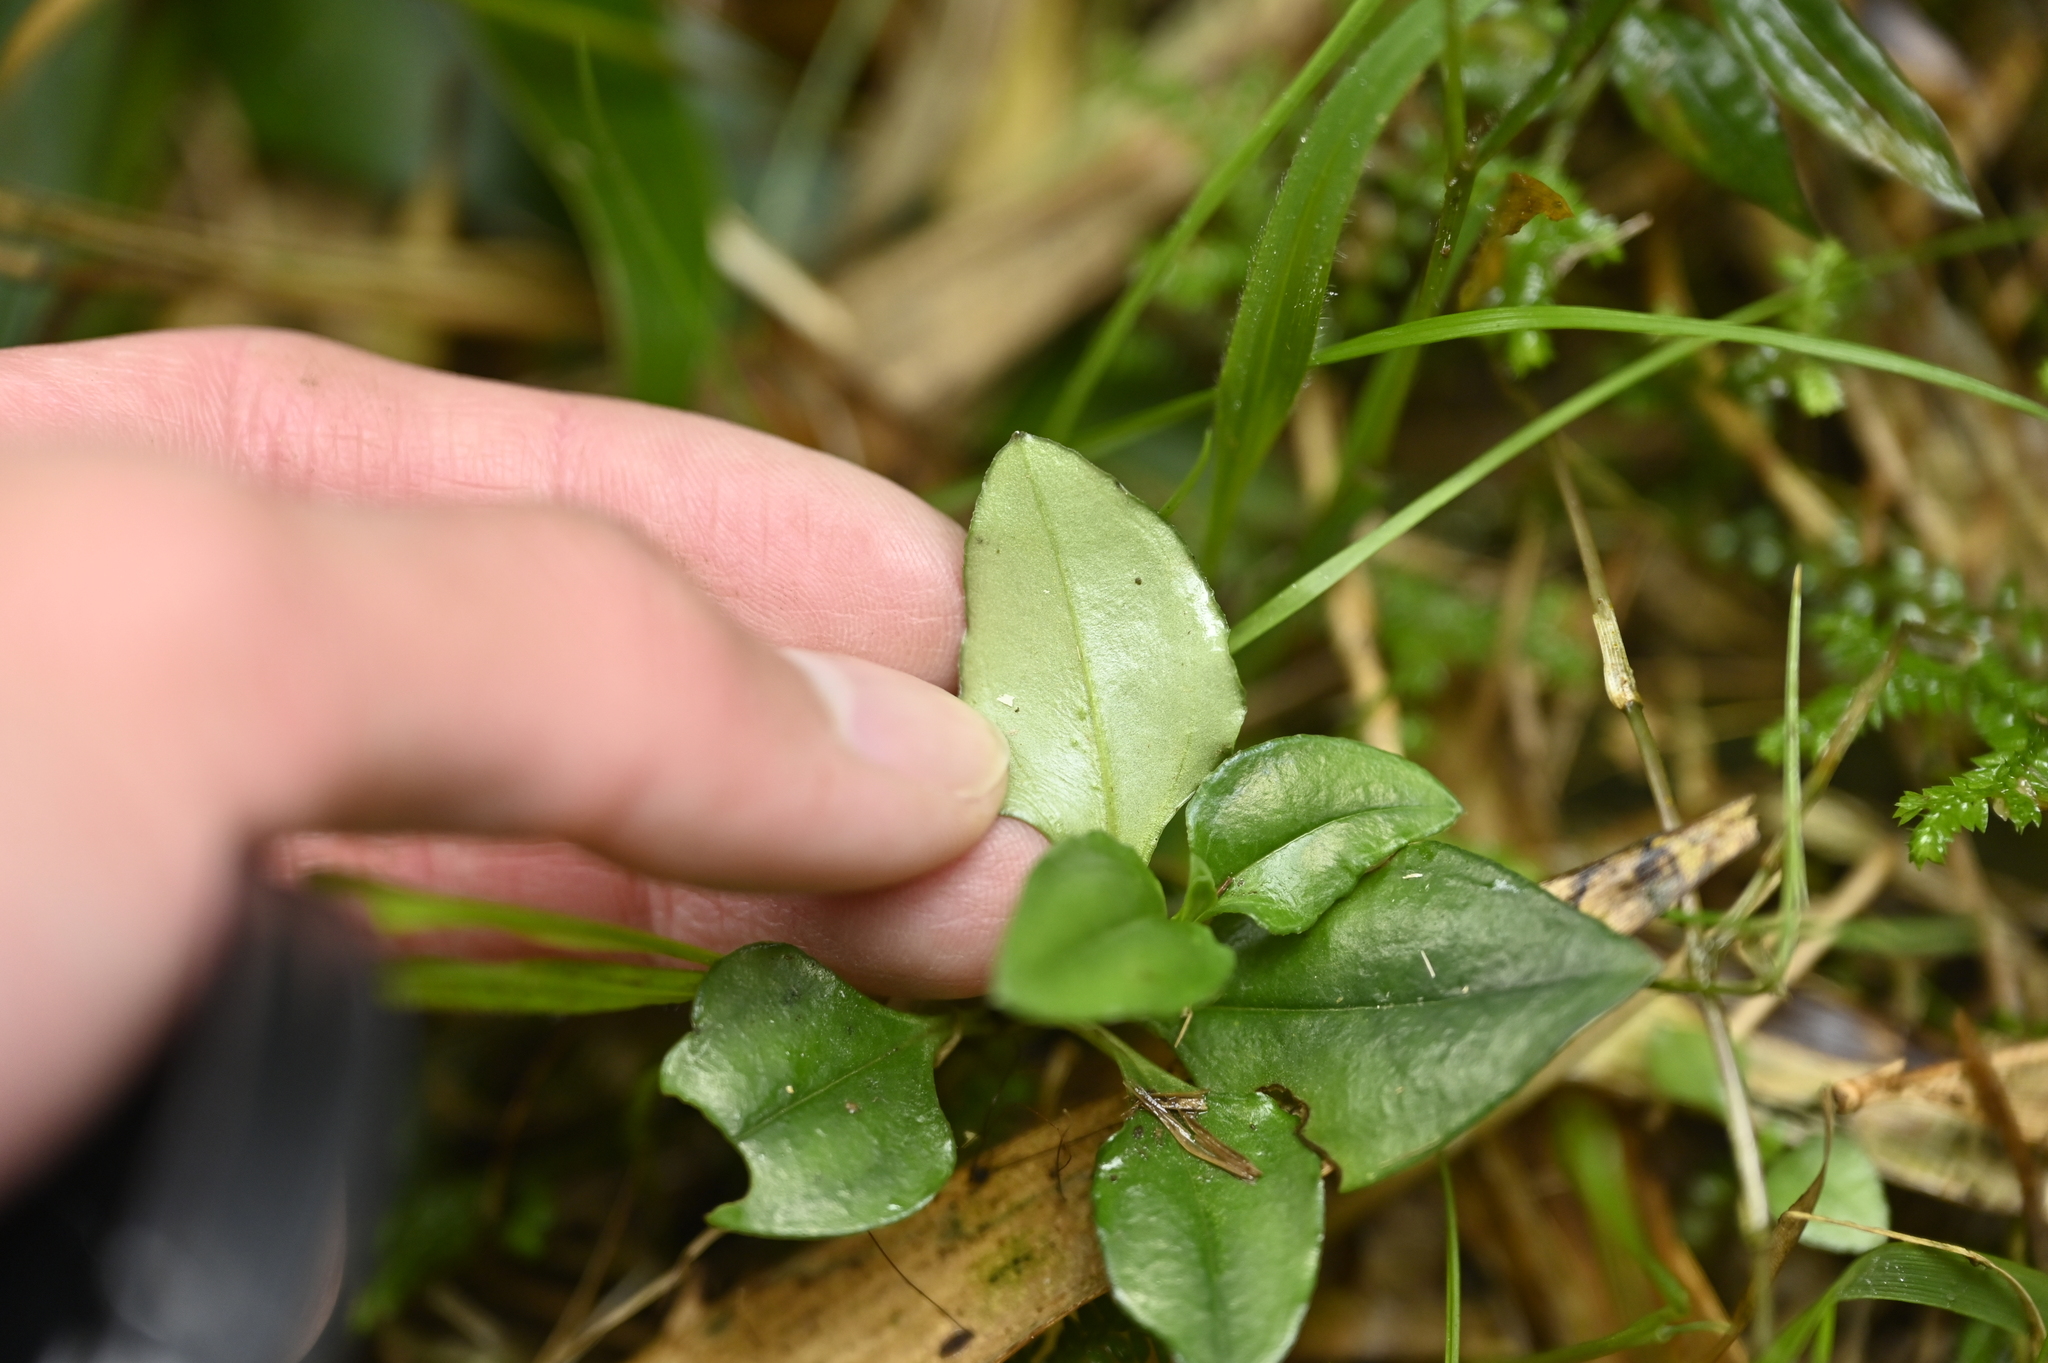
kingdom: Plantae
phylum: Tracheophyta
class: Magnoliopsida
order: Gentianales
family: Gentianaceae
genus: Tripterospermum
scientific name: Tripterospermum alutaceifolium
